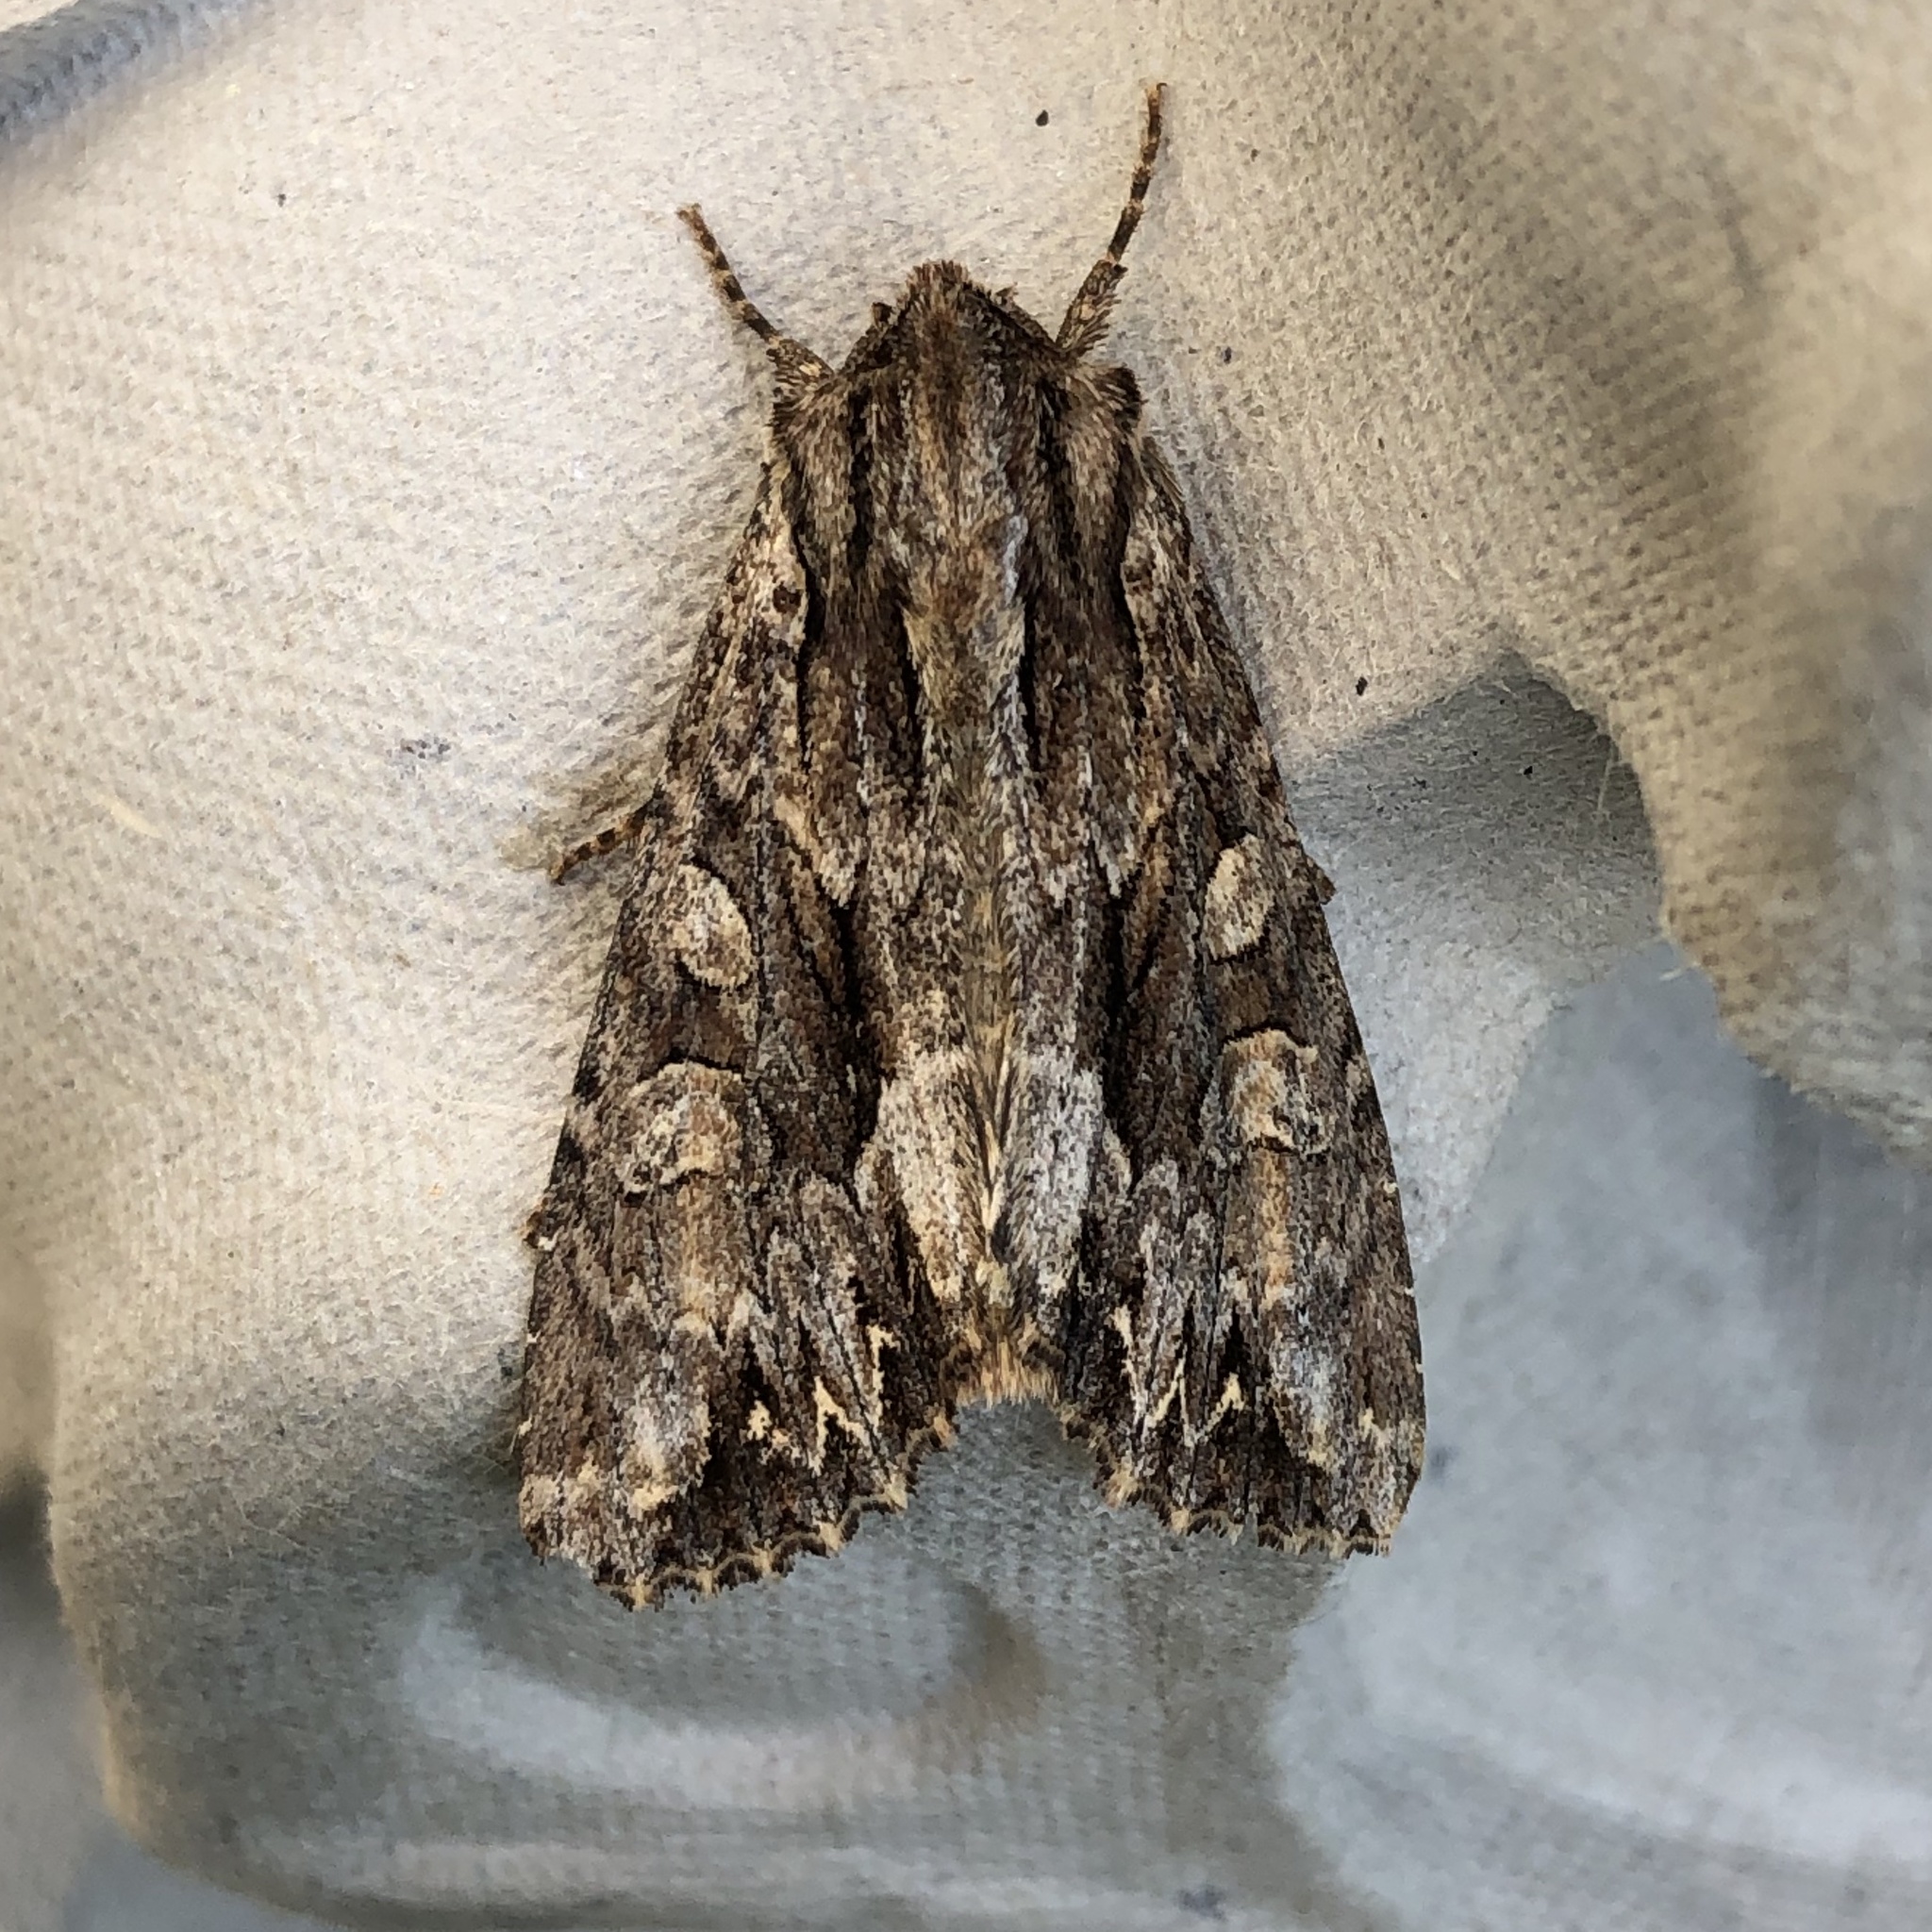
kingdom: Animalia
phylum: Arthropoda
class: Insecta
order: Lepidoptera
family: Noctuidae
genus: Apamea
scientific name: Apamea monoglypha
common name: Dark arches
